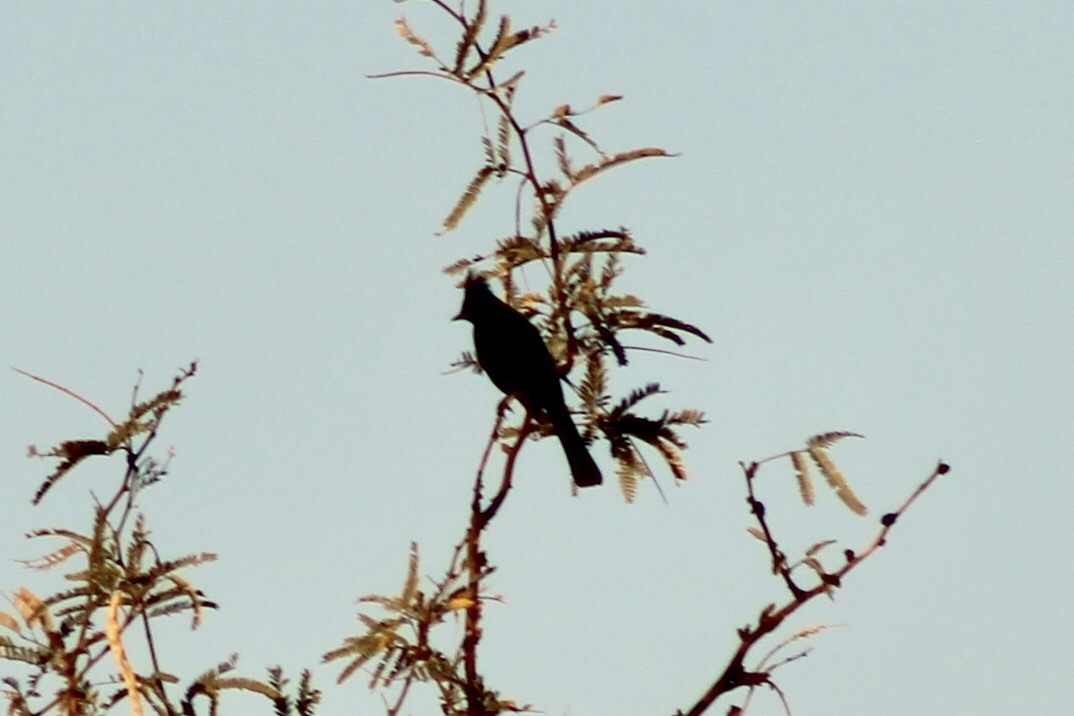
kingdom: Animalia
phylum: Chordata
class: Aves
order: Passeriformes
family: Ptilogonatidae
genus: Phainopepla
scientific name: Phainopepla nitens
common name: Phainopepla
